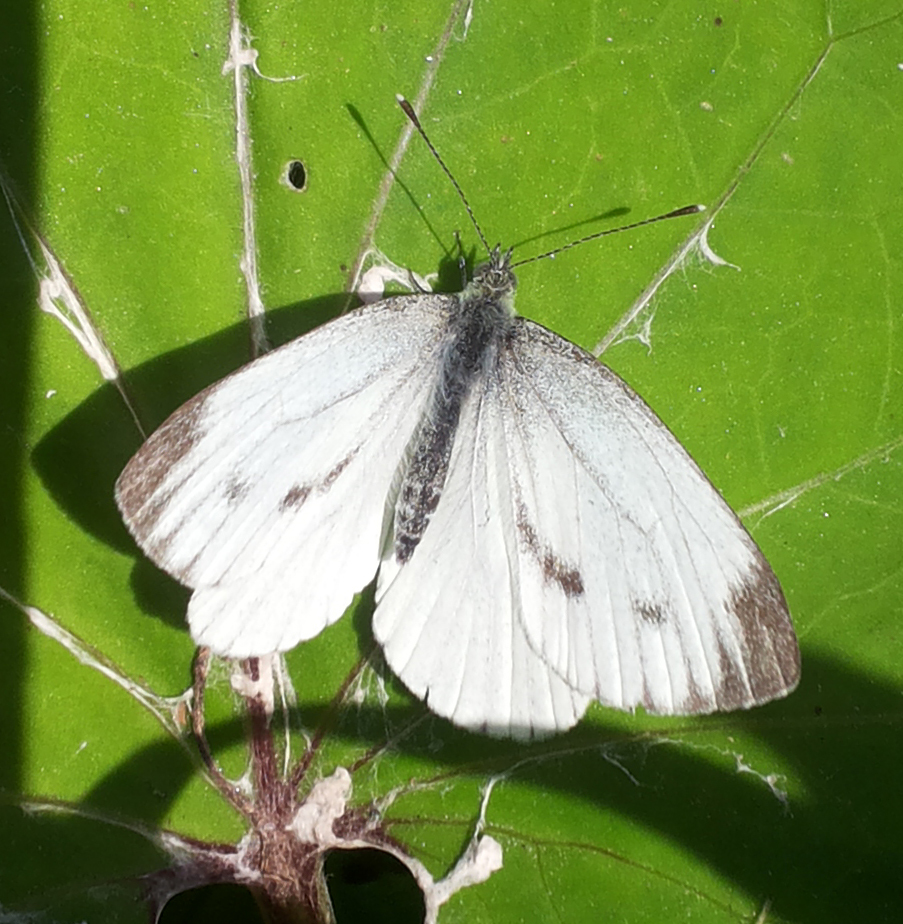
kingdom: Animalia
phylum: Arthropoda
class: Insecta
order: Lepidoptera
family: Pieridae
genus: Pieris
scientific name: Pieris napi
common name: Green-veined white
